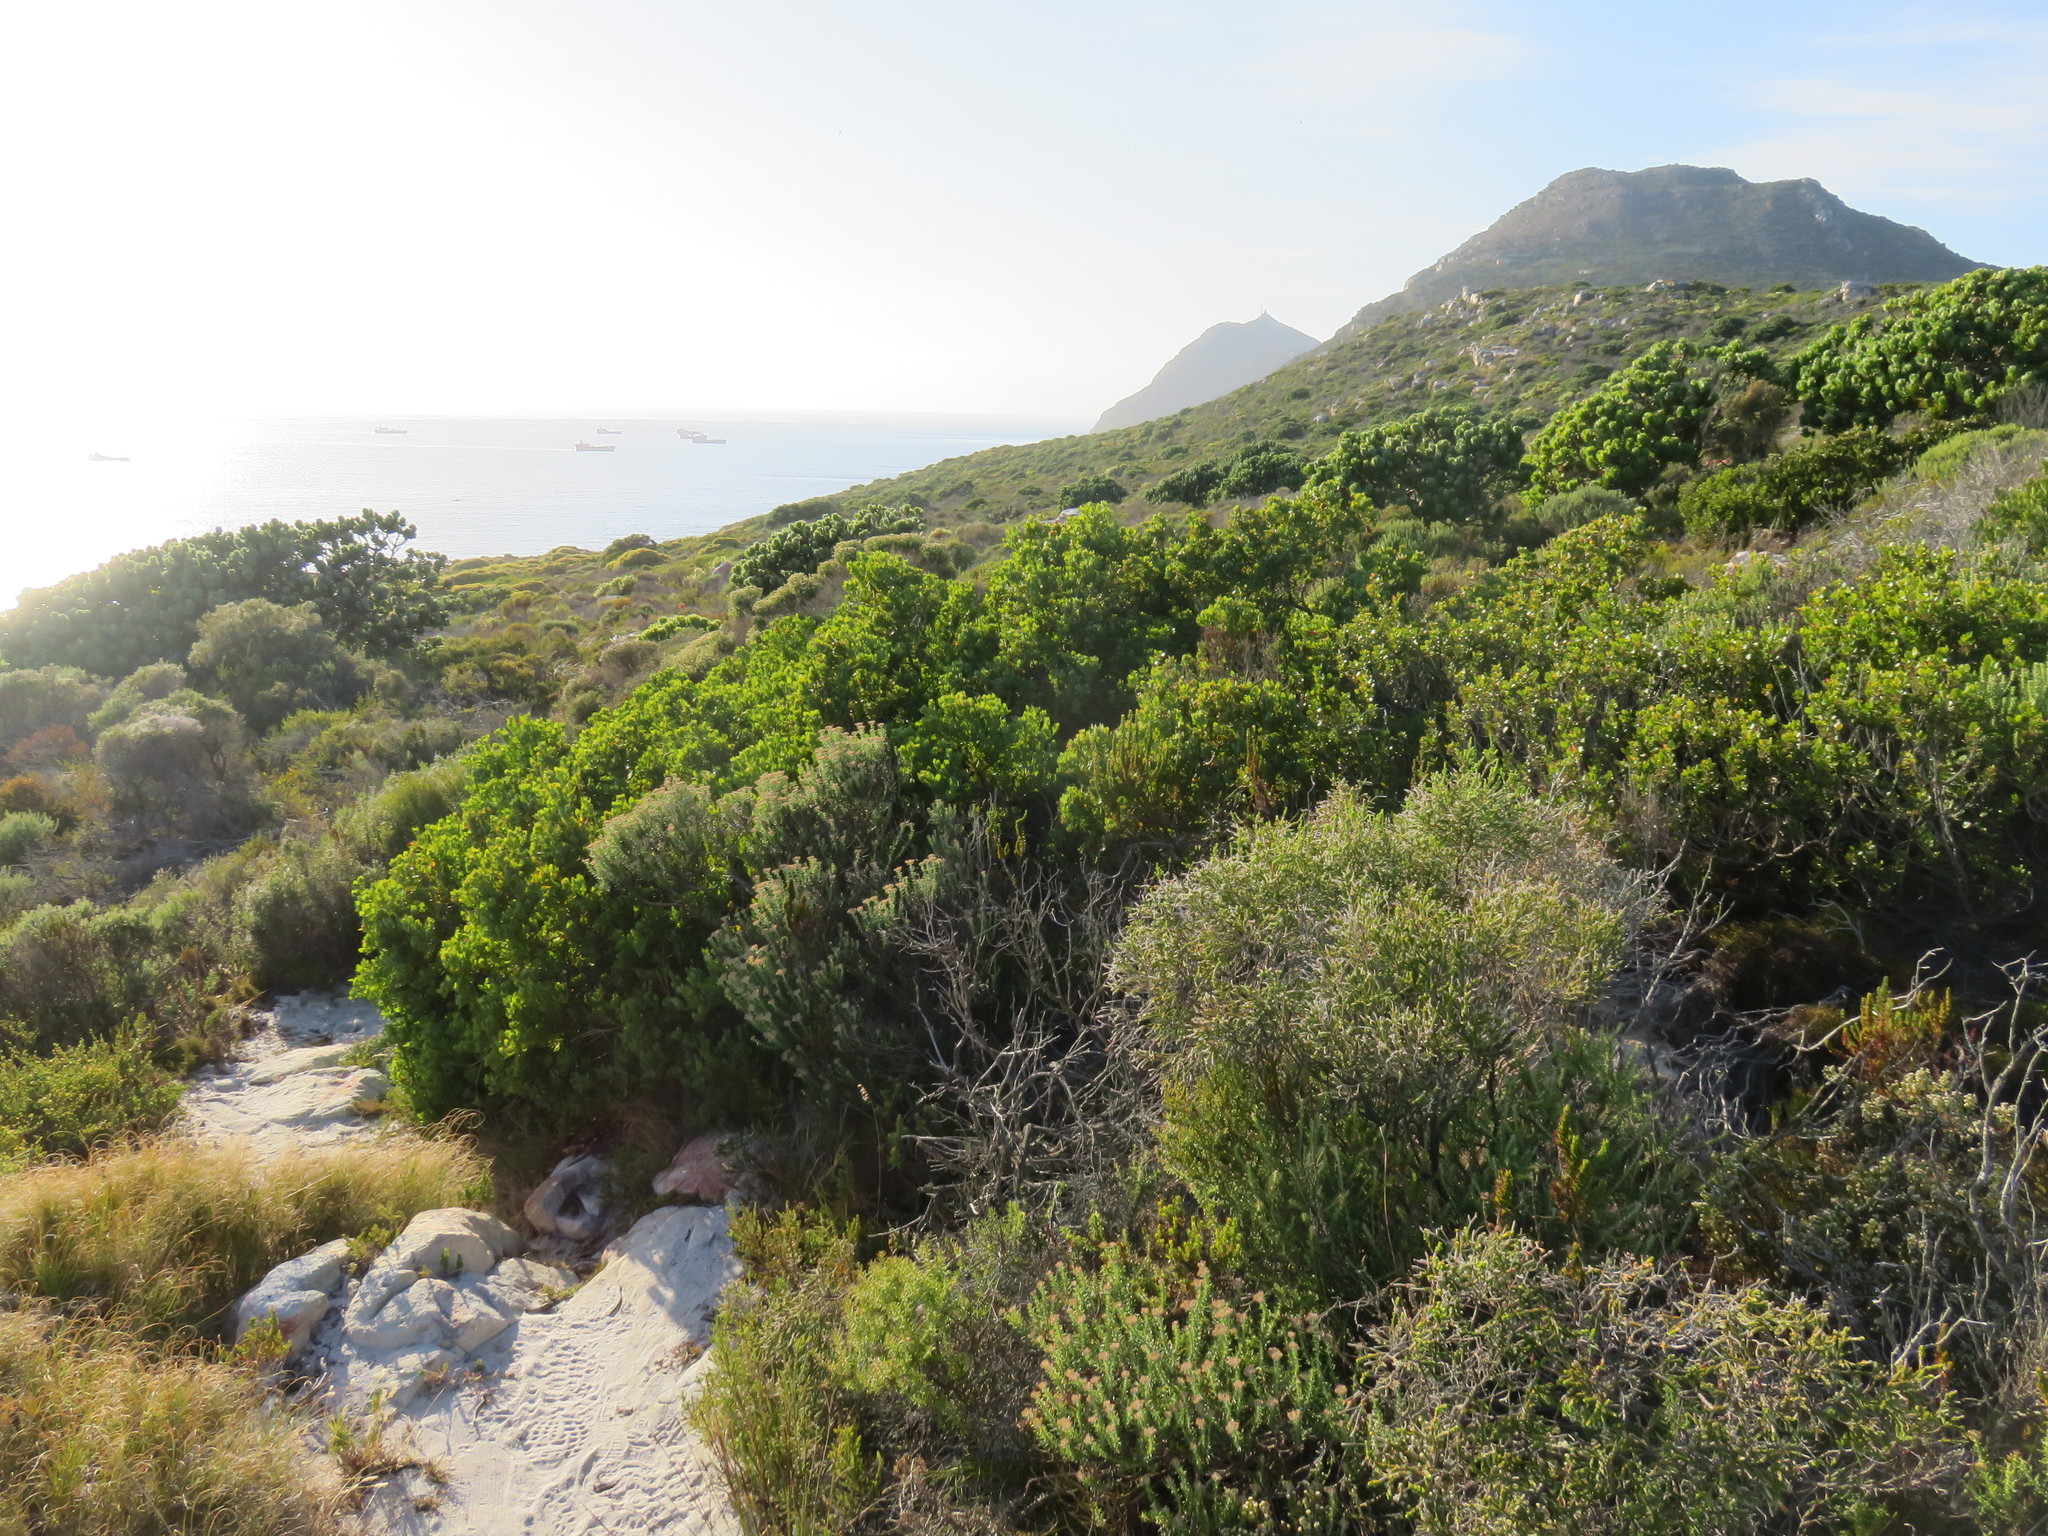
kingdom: Plantae
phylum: Tracheophyta
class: Magnoliopsida
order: Santalales
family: Santalaceae
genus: Osyris
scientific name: Osyris compressa
